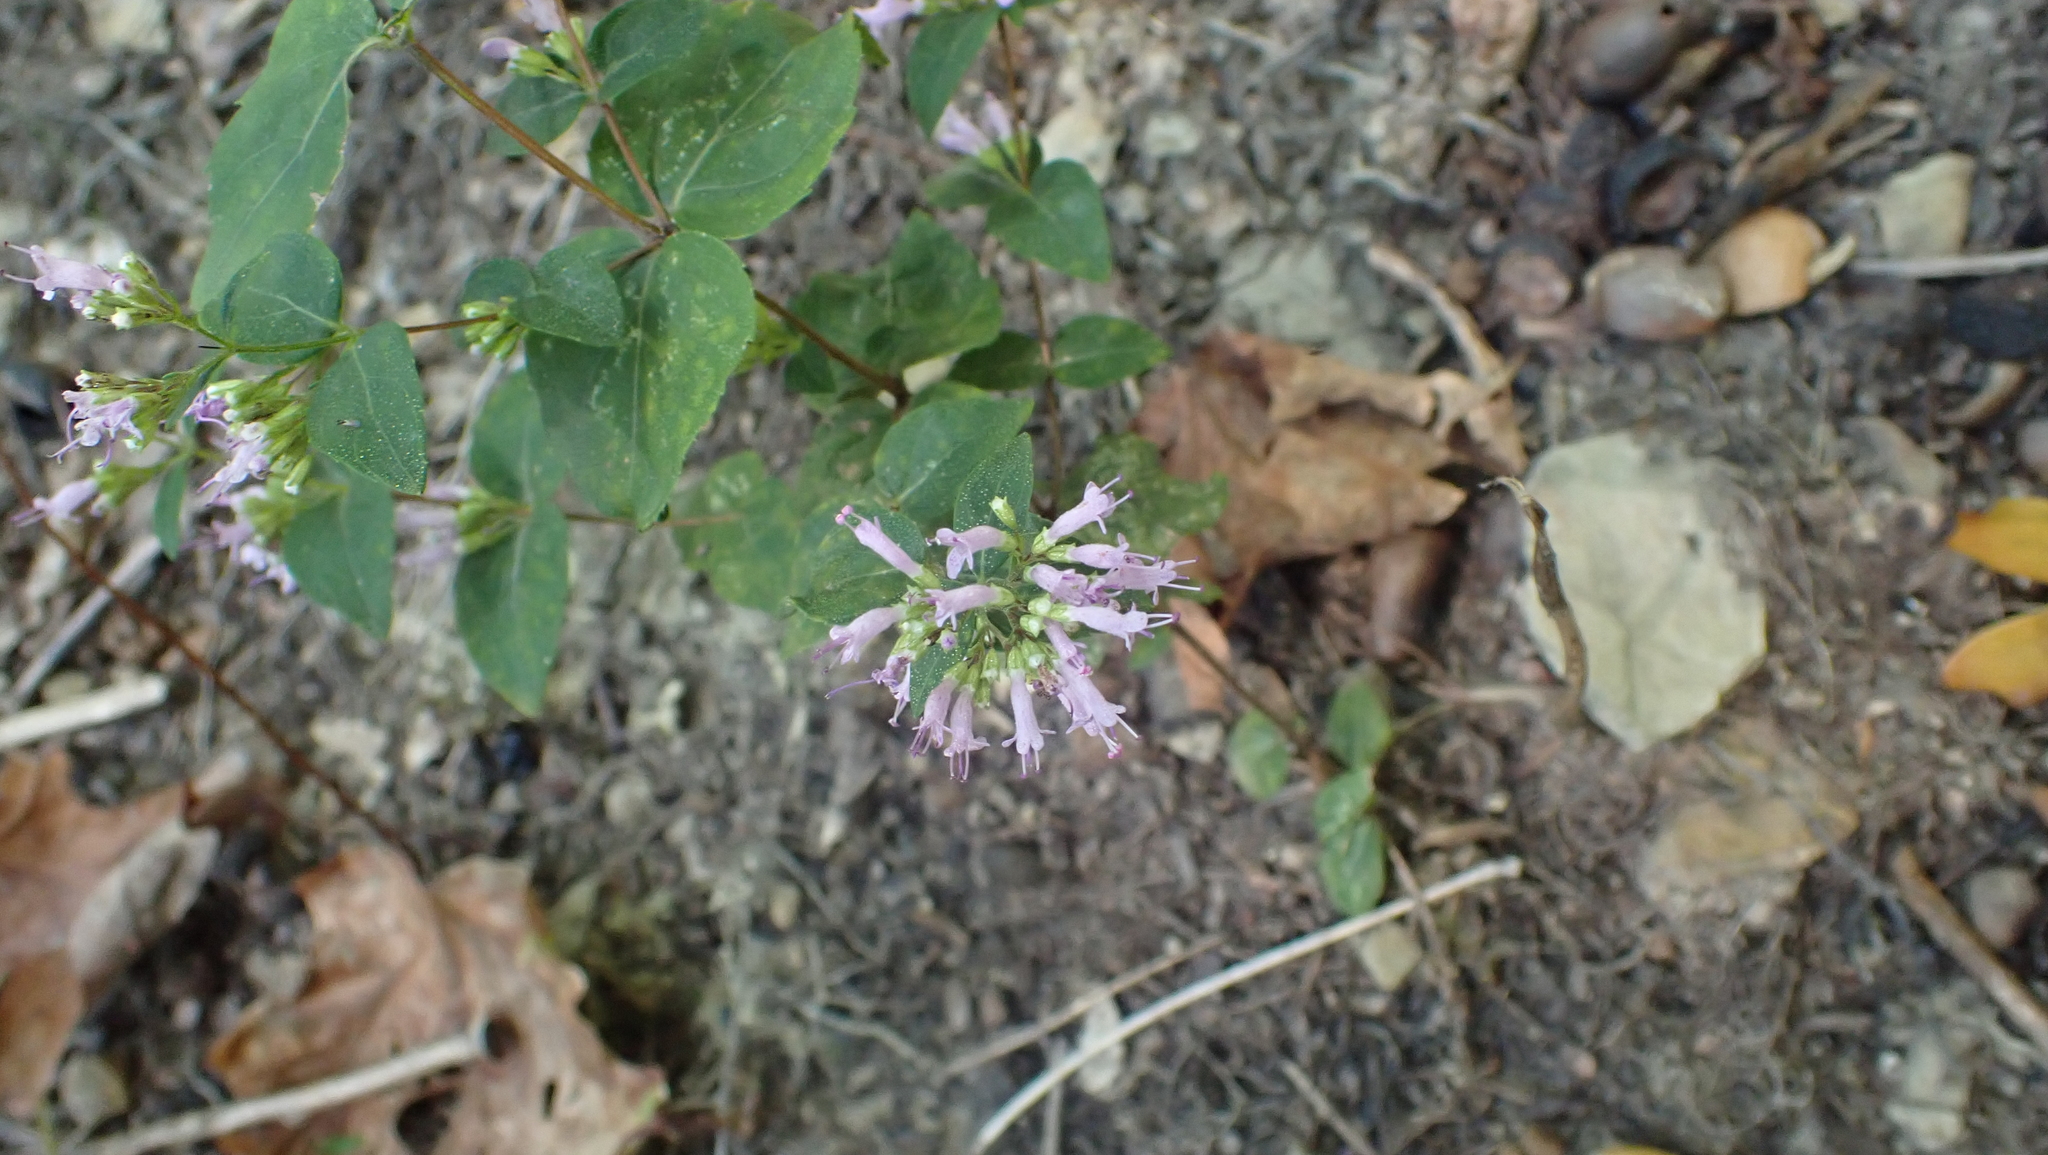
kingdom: Plantae
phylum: Tracheophyta
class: Magnoliopsida
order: Lamiales
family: Lamiaceae
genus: Cunila
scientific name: Cunila origanoides
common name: American dittany
